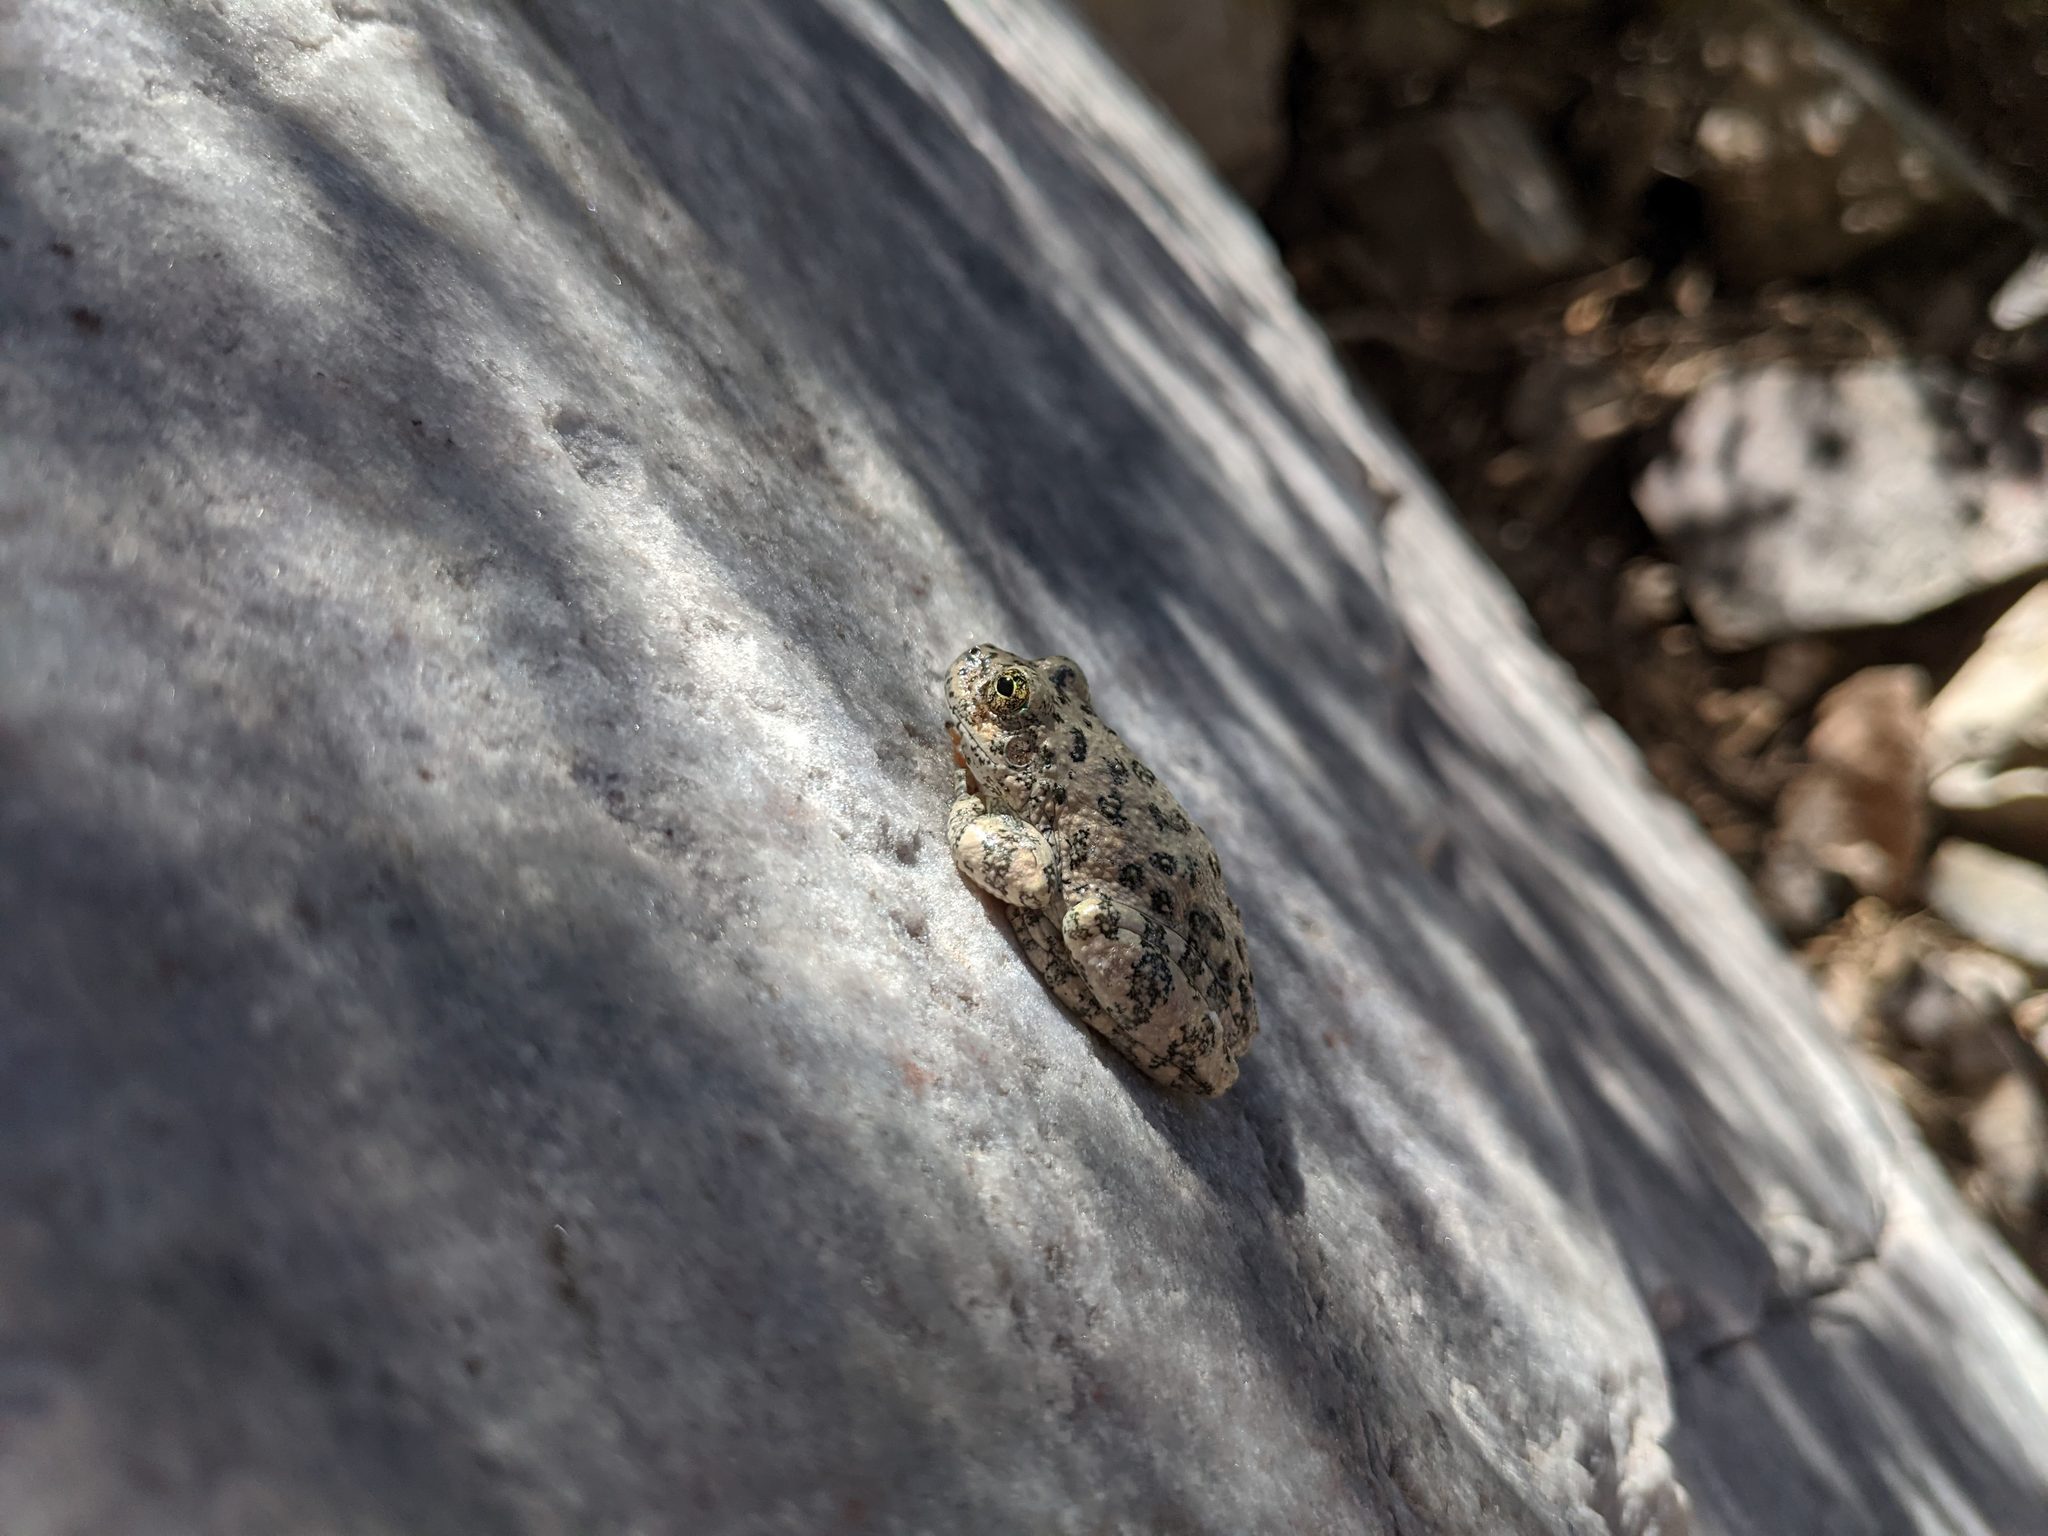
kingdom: Animalia
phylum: Chordata
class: Amphibia
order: Anura
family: Hylidae
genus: Dryophytes
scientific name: Dryophytes arenicolor
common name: Canyon treefrog
